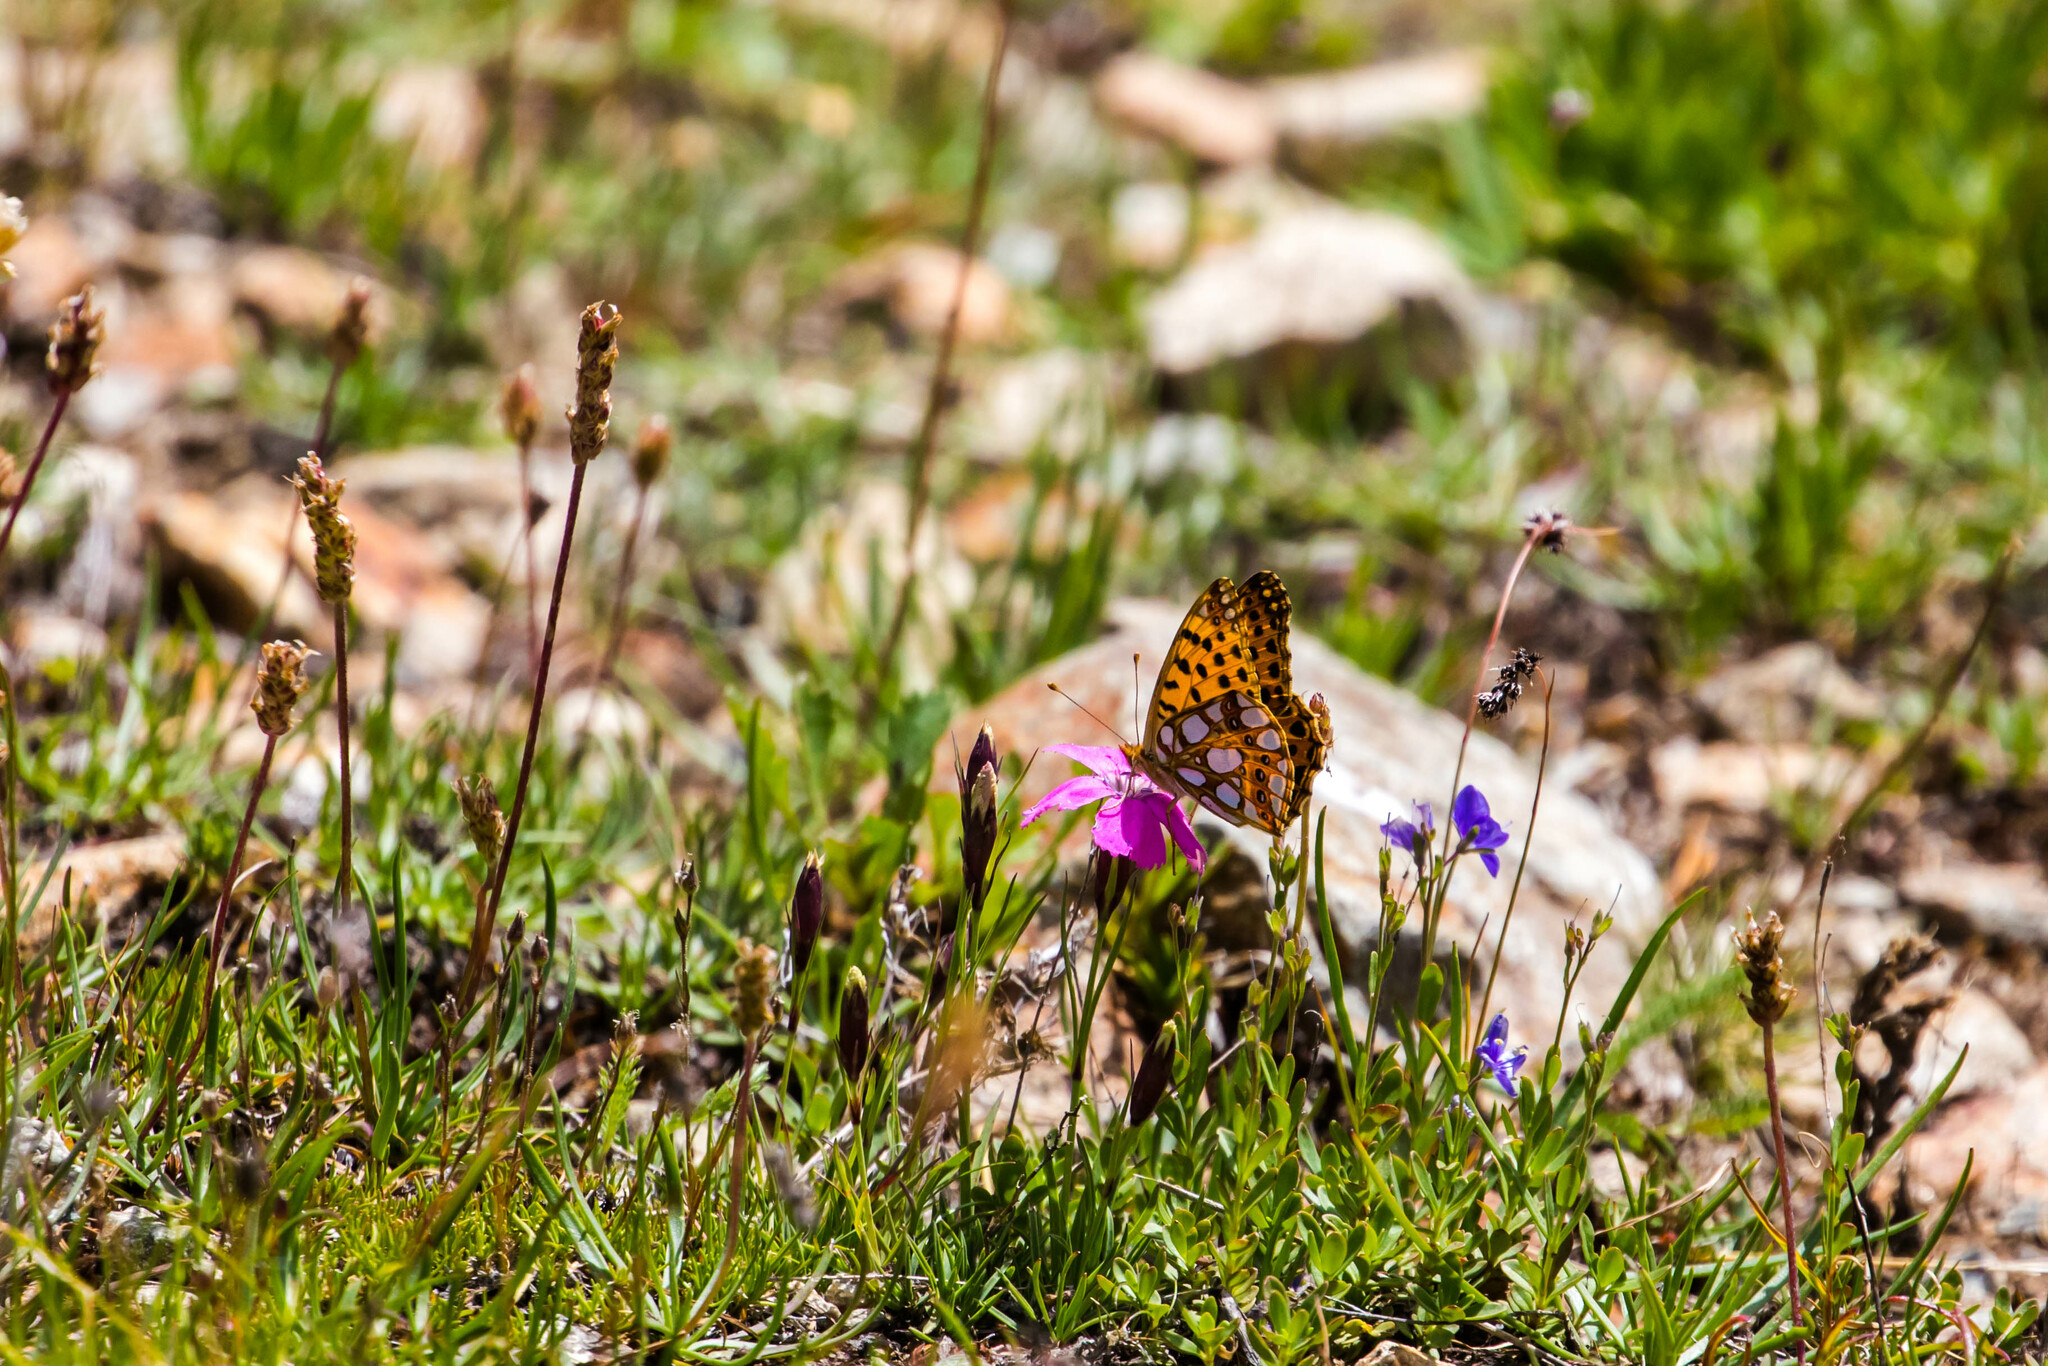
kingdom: Animalia
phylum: Arthropoda
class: Insecta
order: Lepidoptera
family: Nymphalidae
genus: Issoria
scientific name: Issoria lathonia
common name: Queen of spain fritillary
